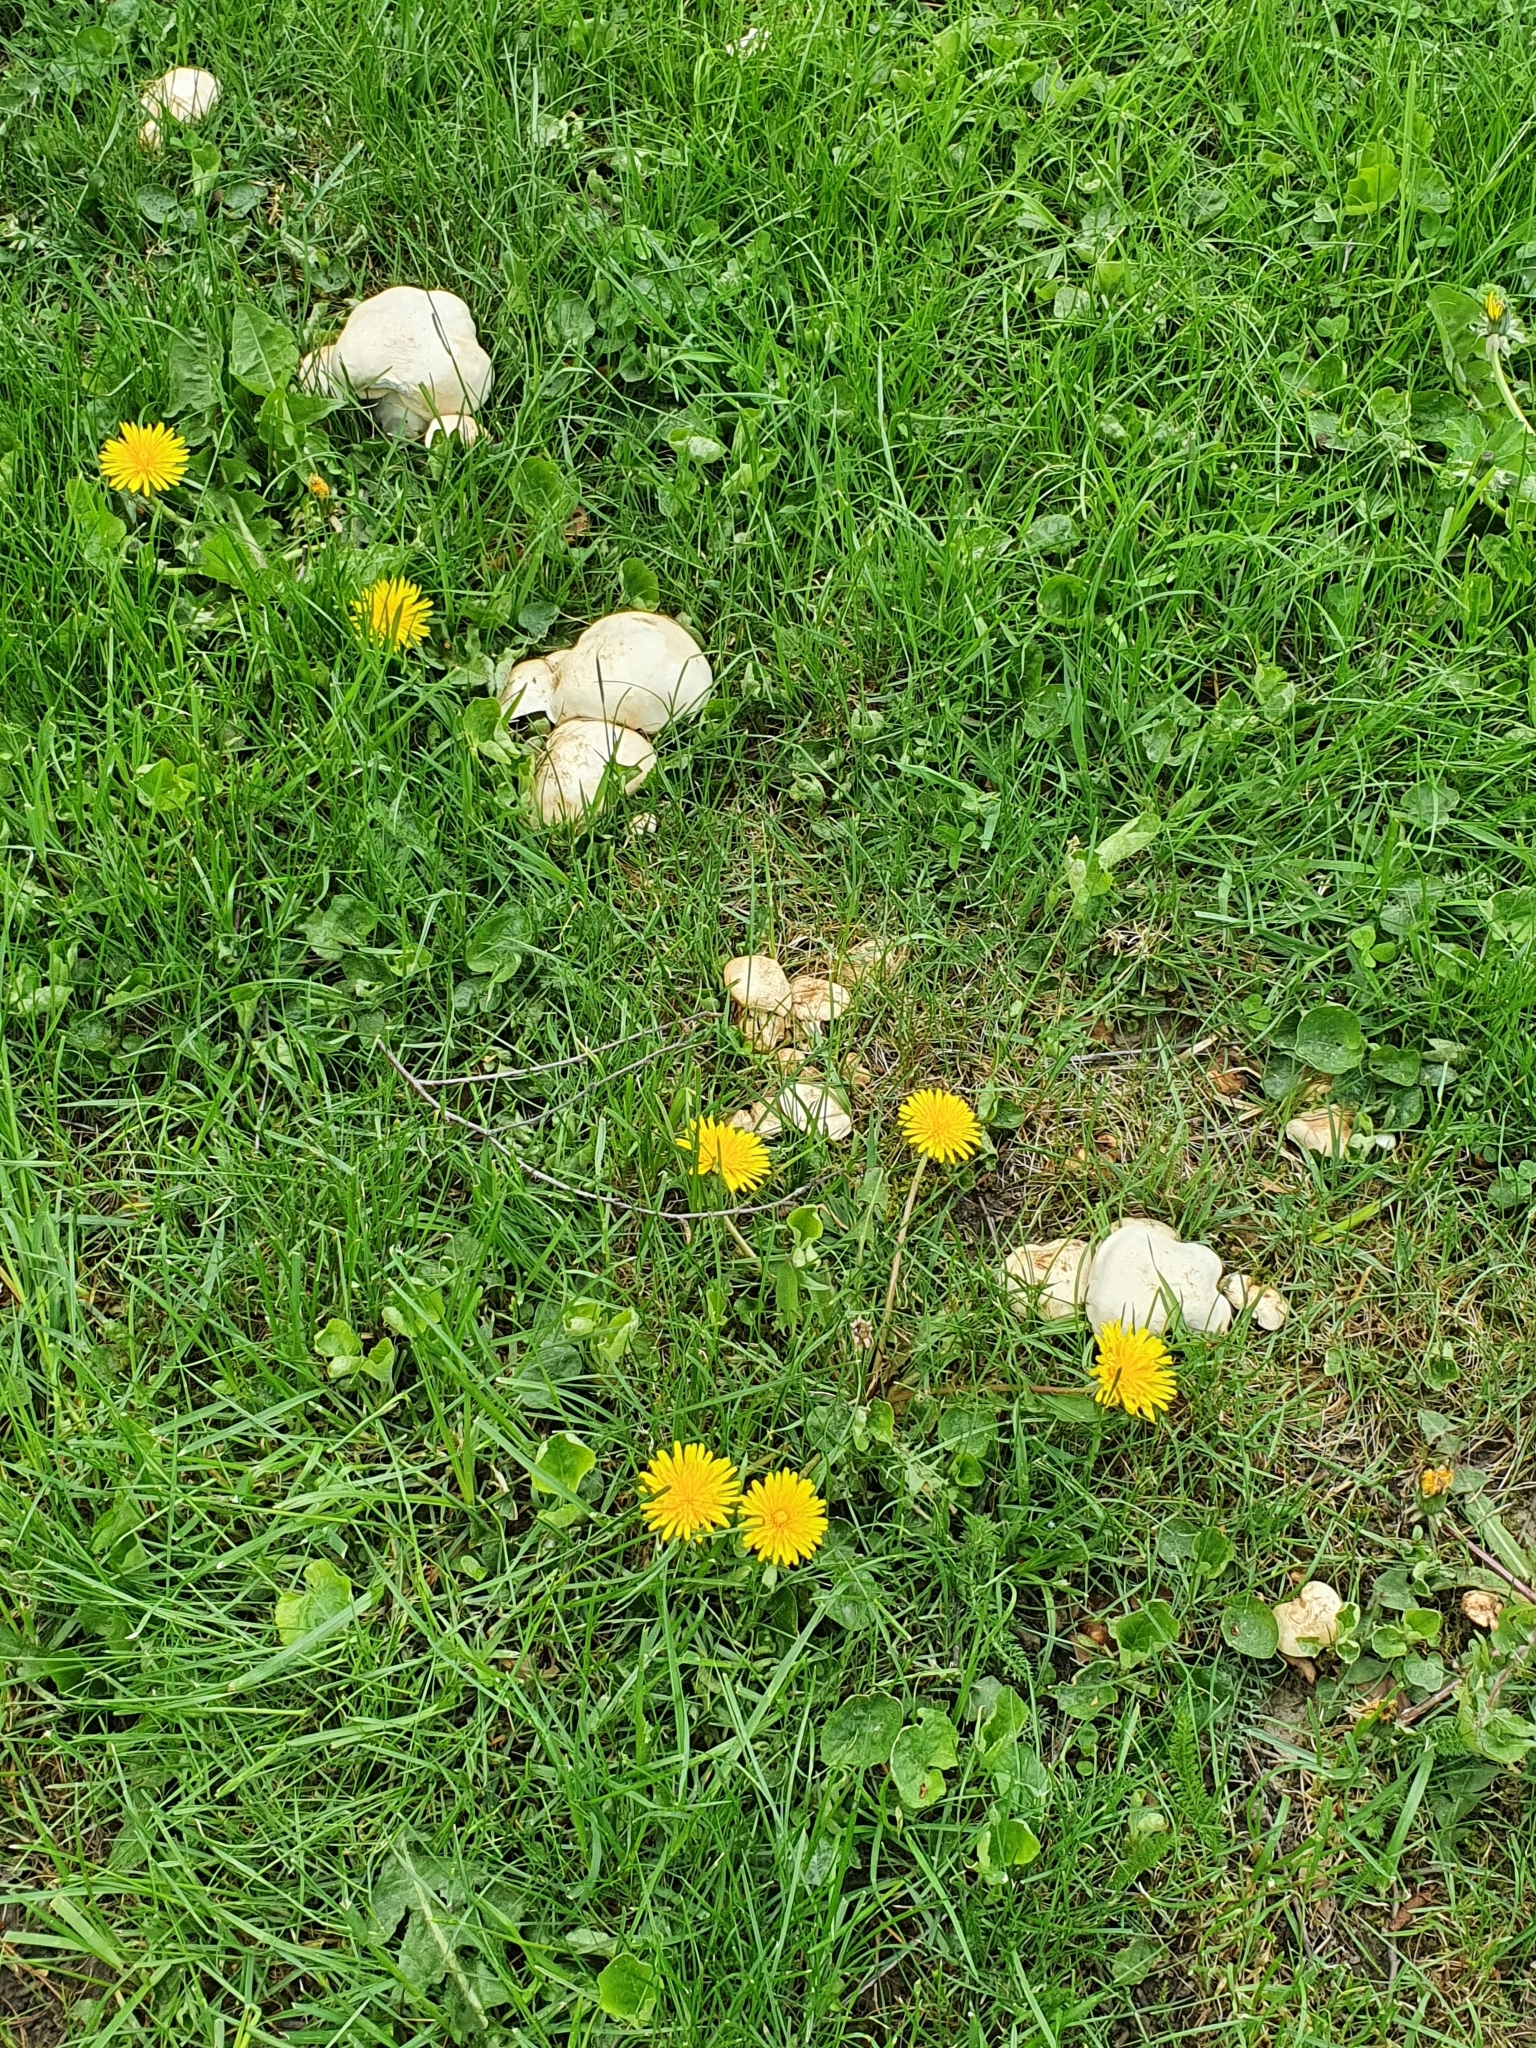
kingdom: Fungi
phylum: Basidiomycota
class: Agaricomycetes
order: Agaricales
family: Lyophyllaceae
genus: Calocybe
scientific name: Calocybe gambosa
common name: St. george's mushroom
